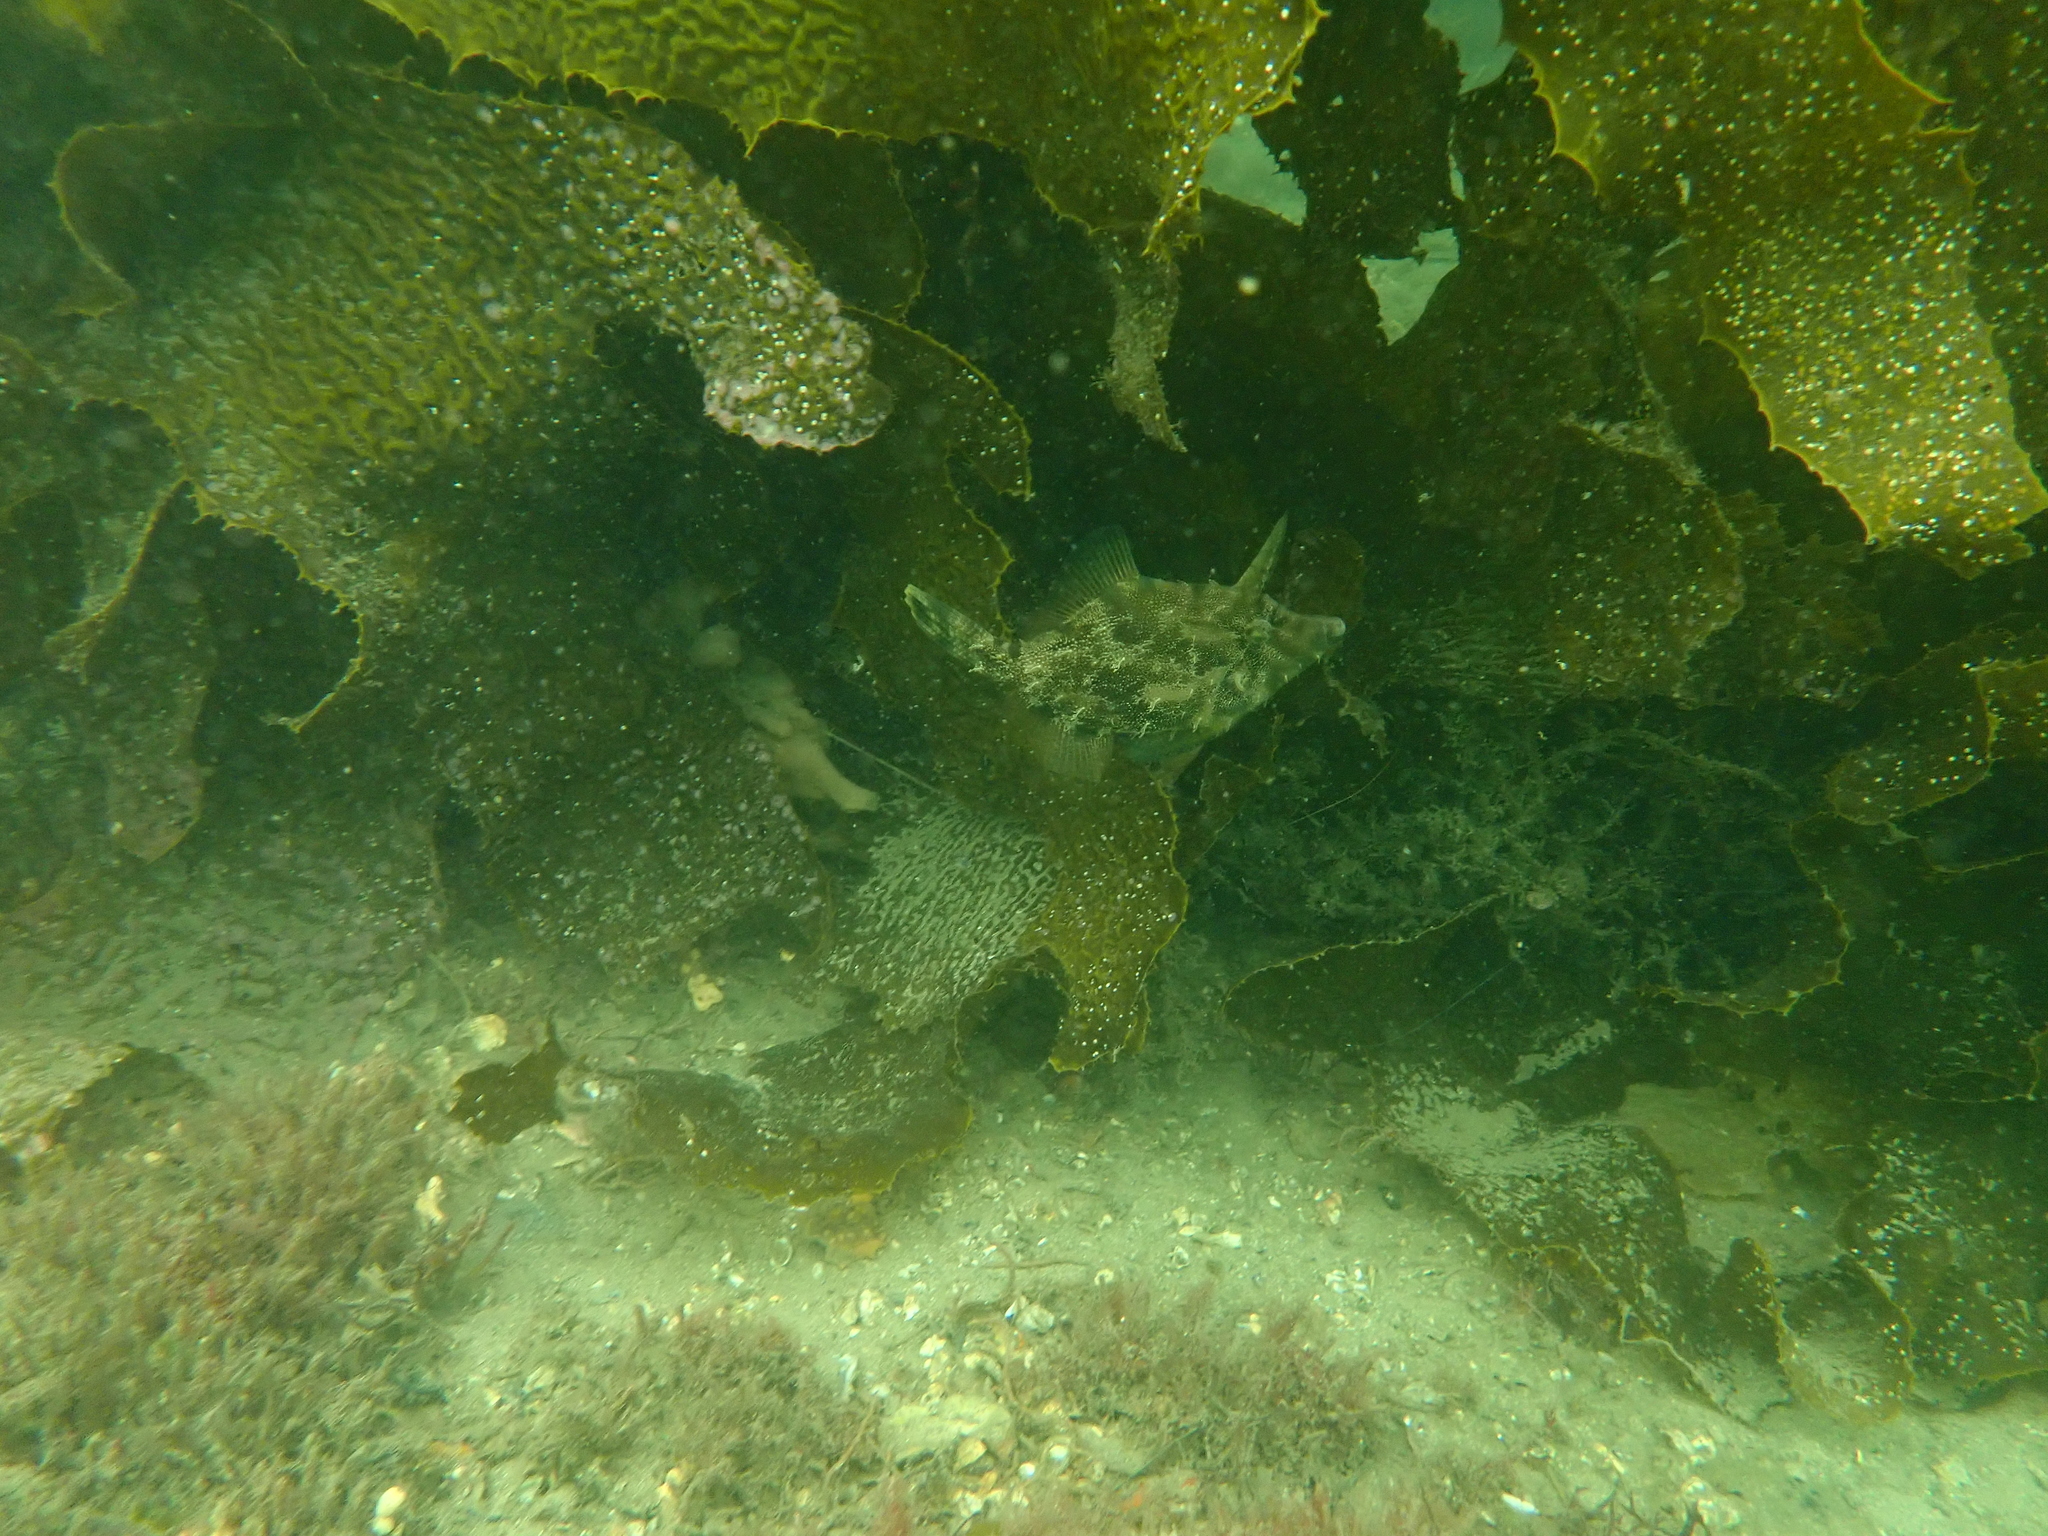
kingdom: Chromista
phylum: Ochrophyta
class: Phaeophyceae
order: Laminariales
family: Lessoniaceae
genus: Ecklonia
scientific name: Ecklonia radiata
